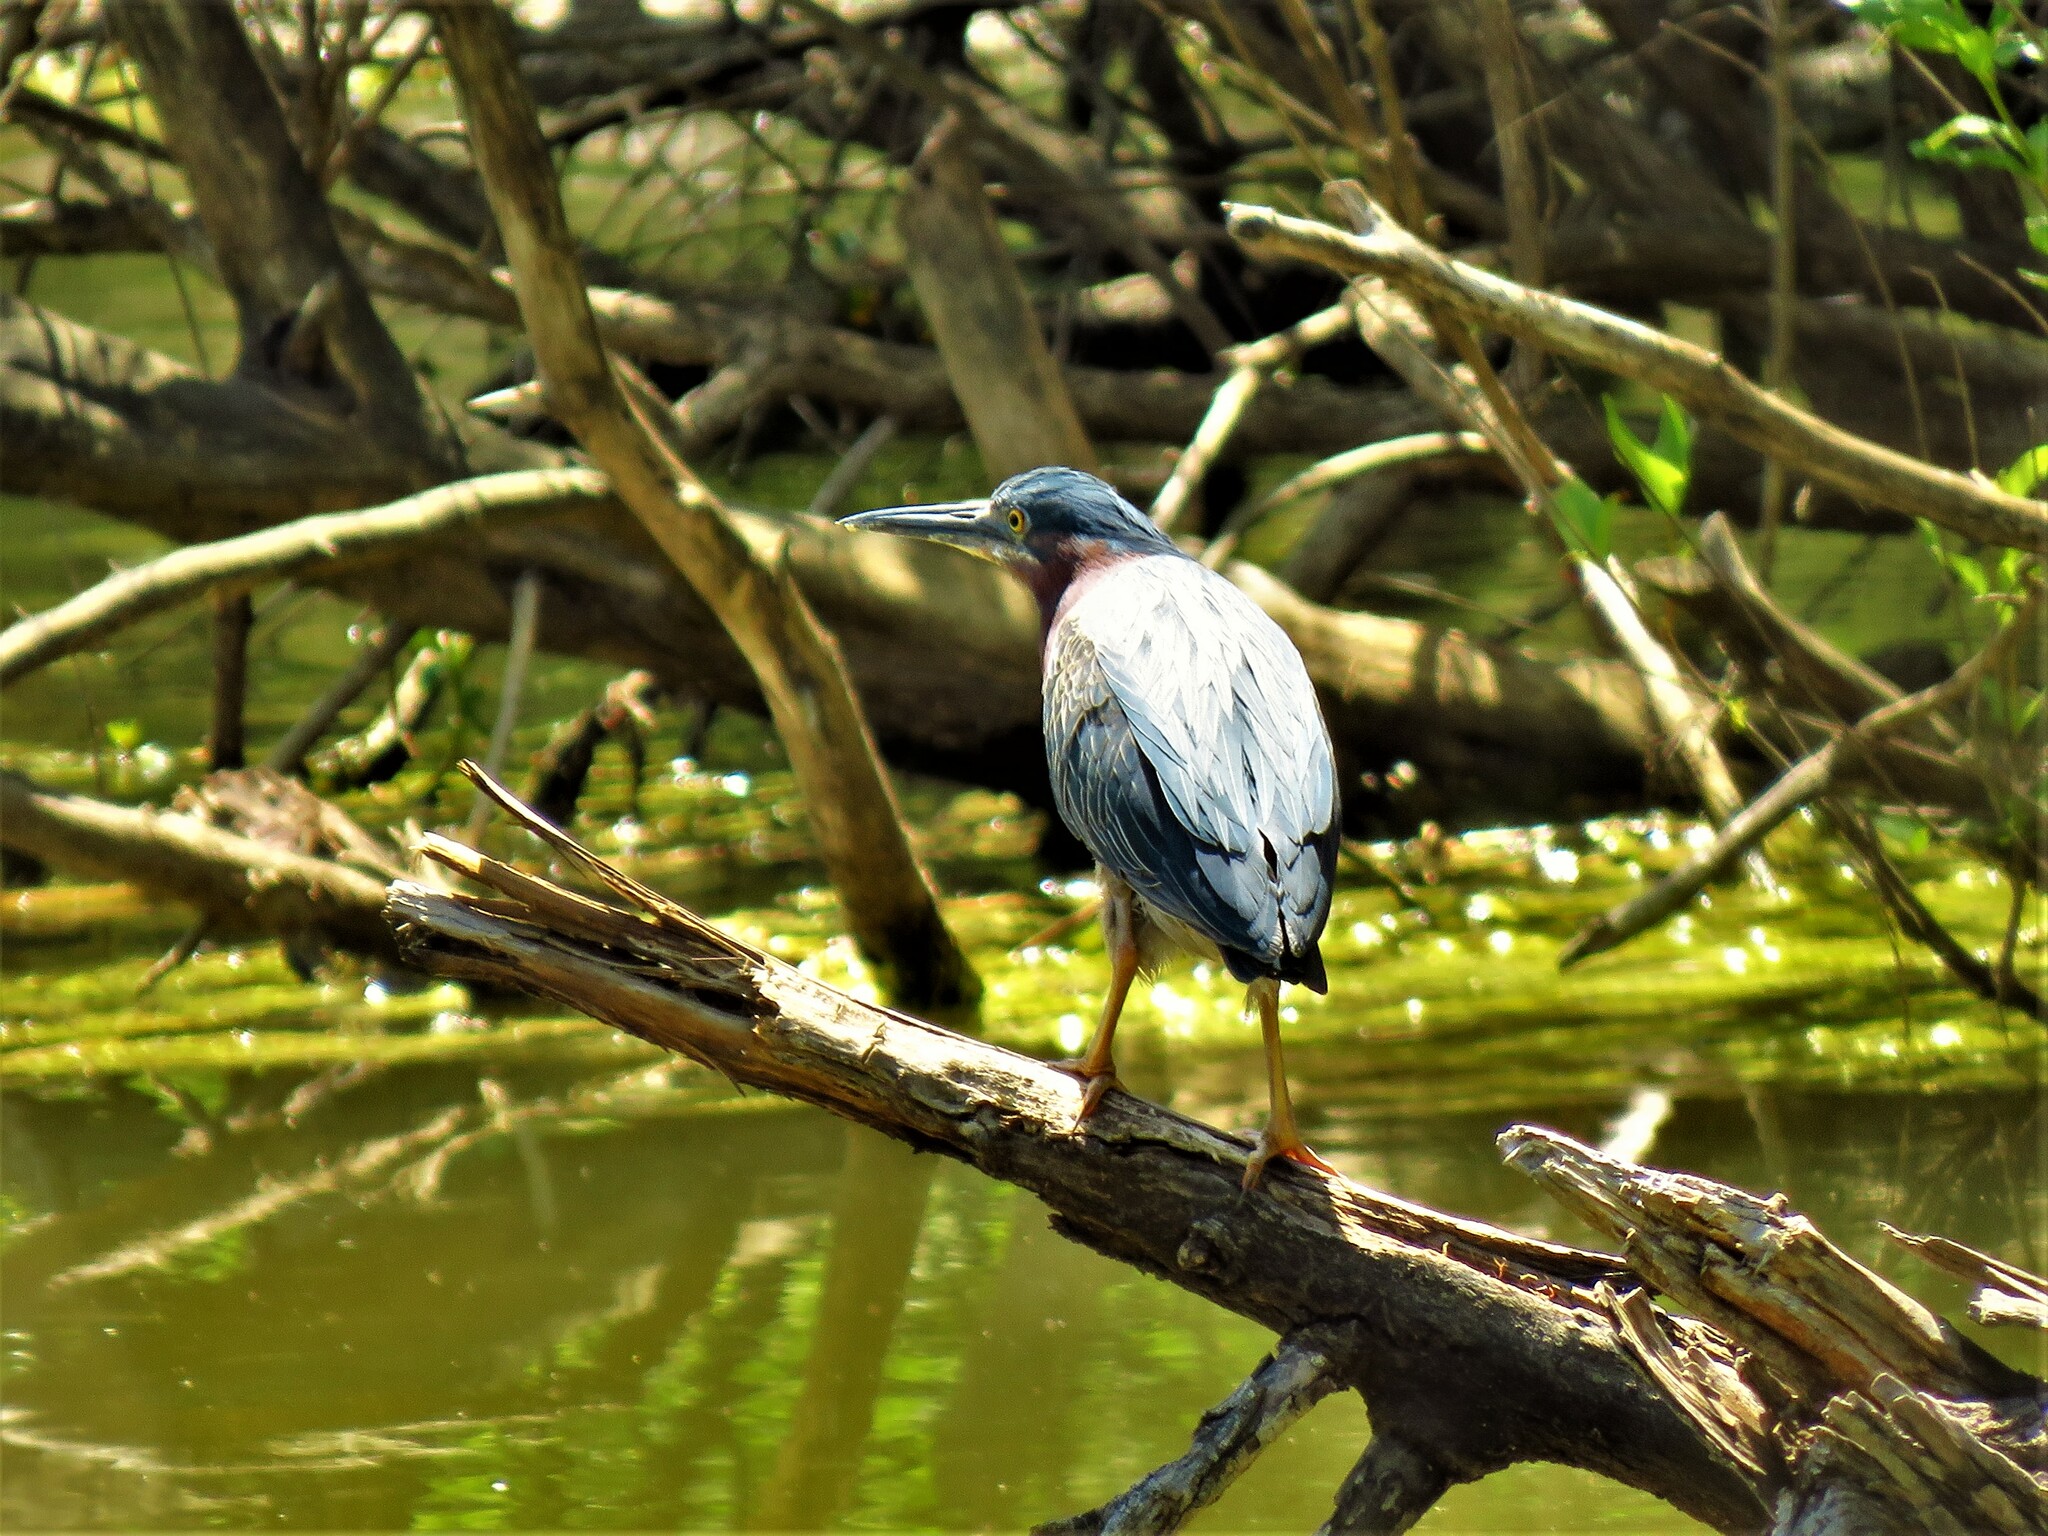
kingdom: Animalia
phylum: Chordata
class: Aves
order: Pelecaniformes
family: Ardeidae
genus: Butorides
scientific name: Butorides virescens
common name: Green heron
